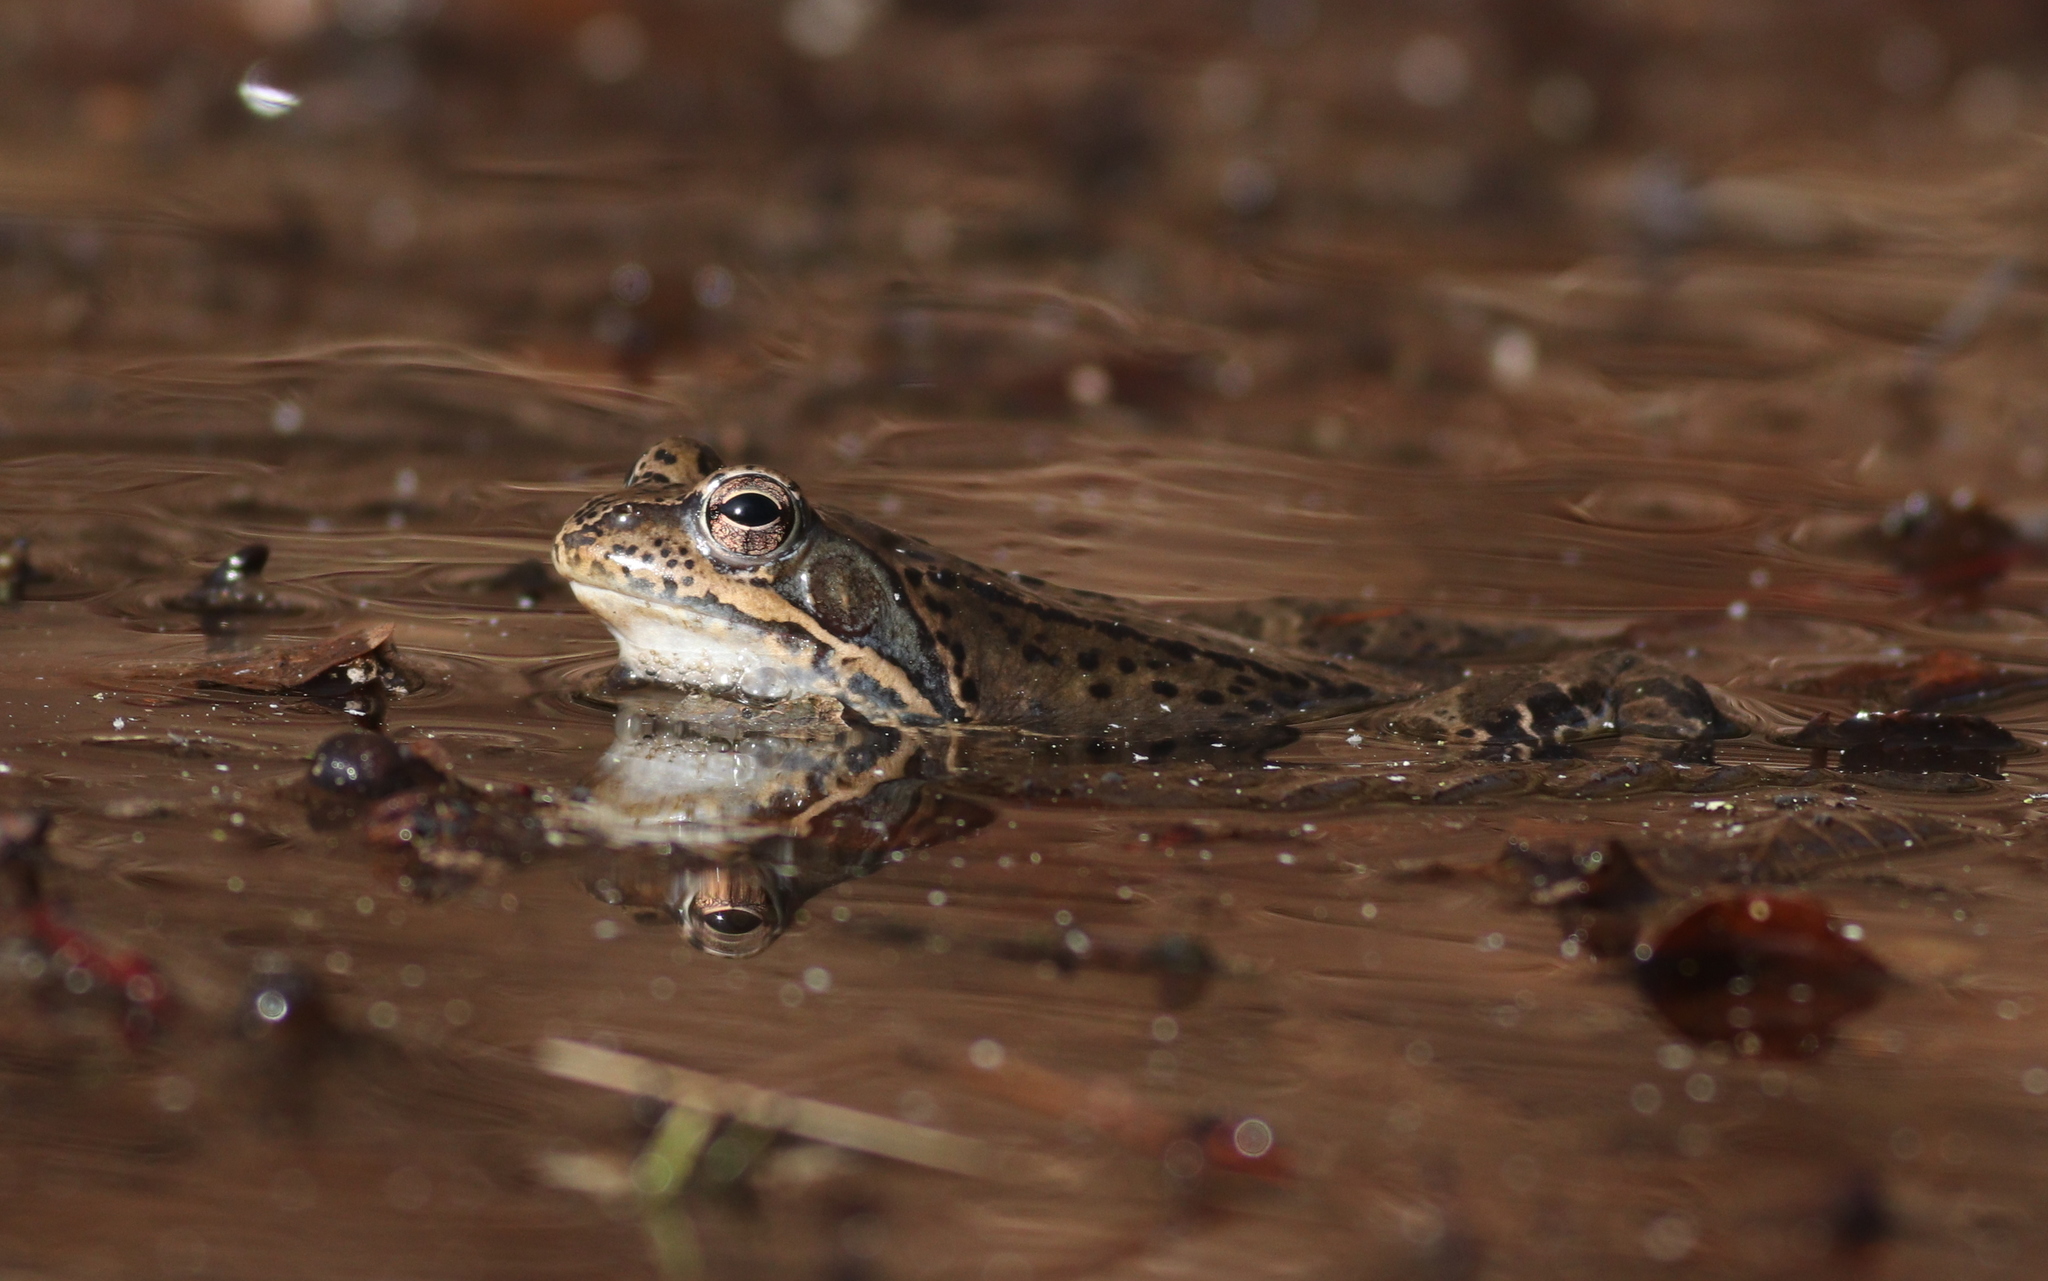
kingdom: Animalia
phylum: Chordata
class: Amphibia
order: Anura
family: Ranidae
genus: Rana
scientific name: Rana temporaria
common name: Common frog
